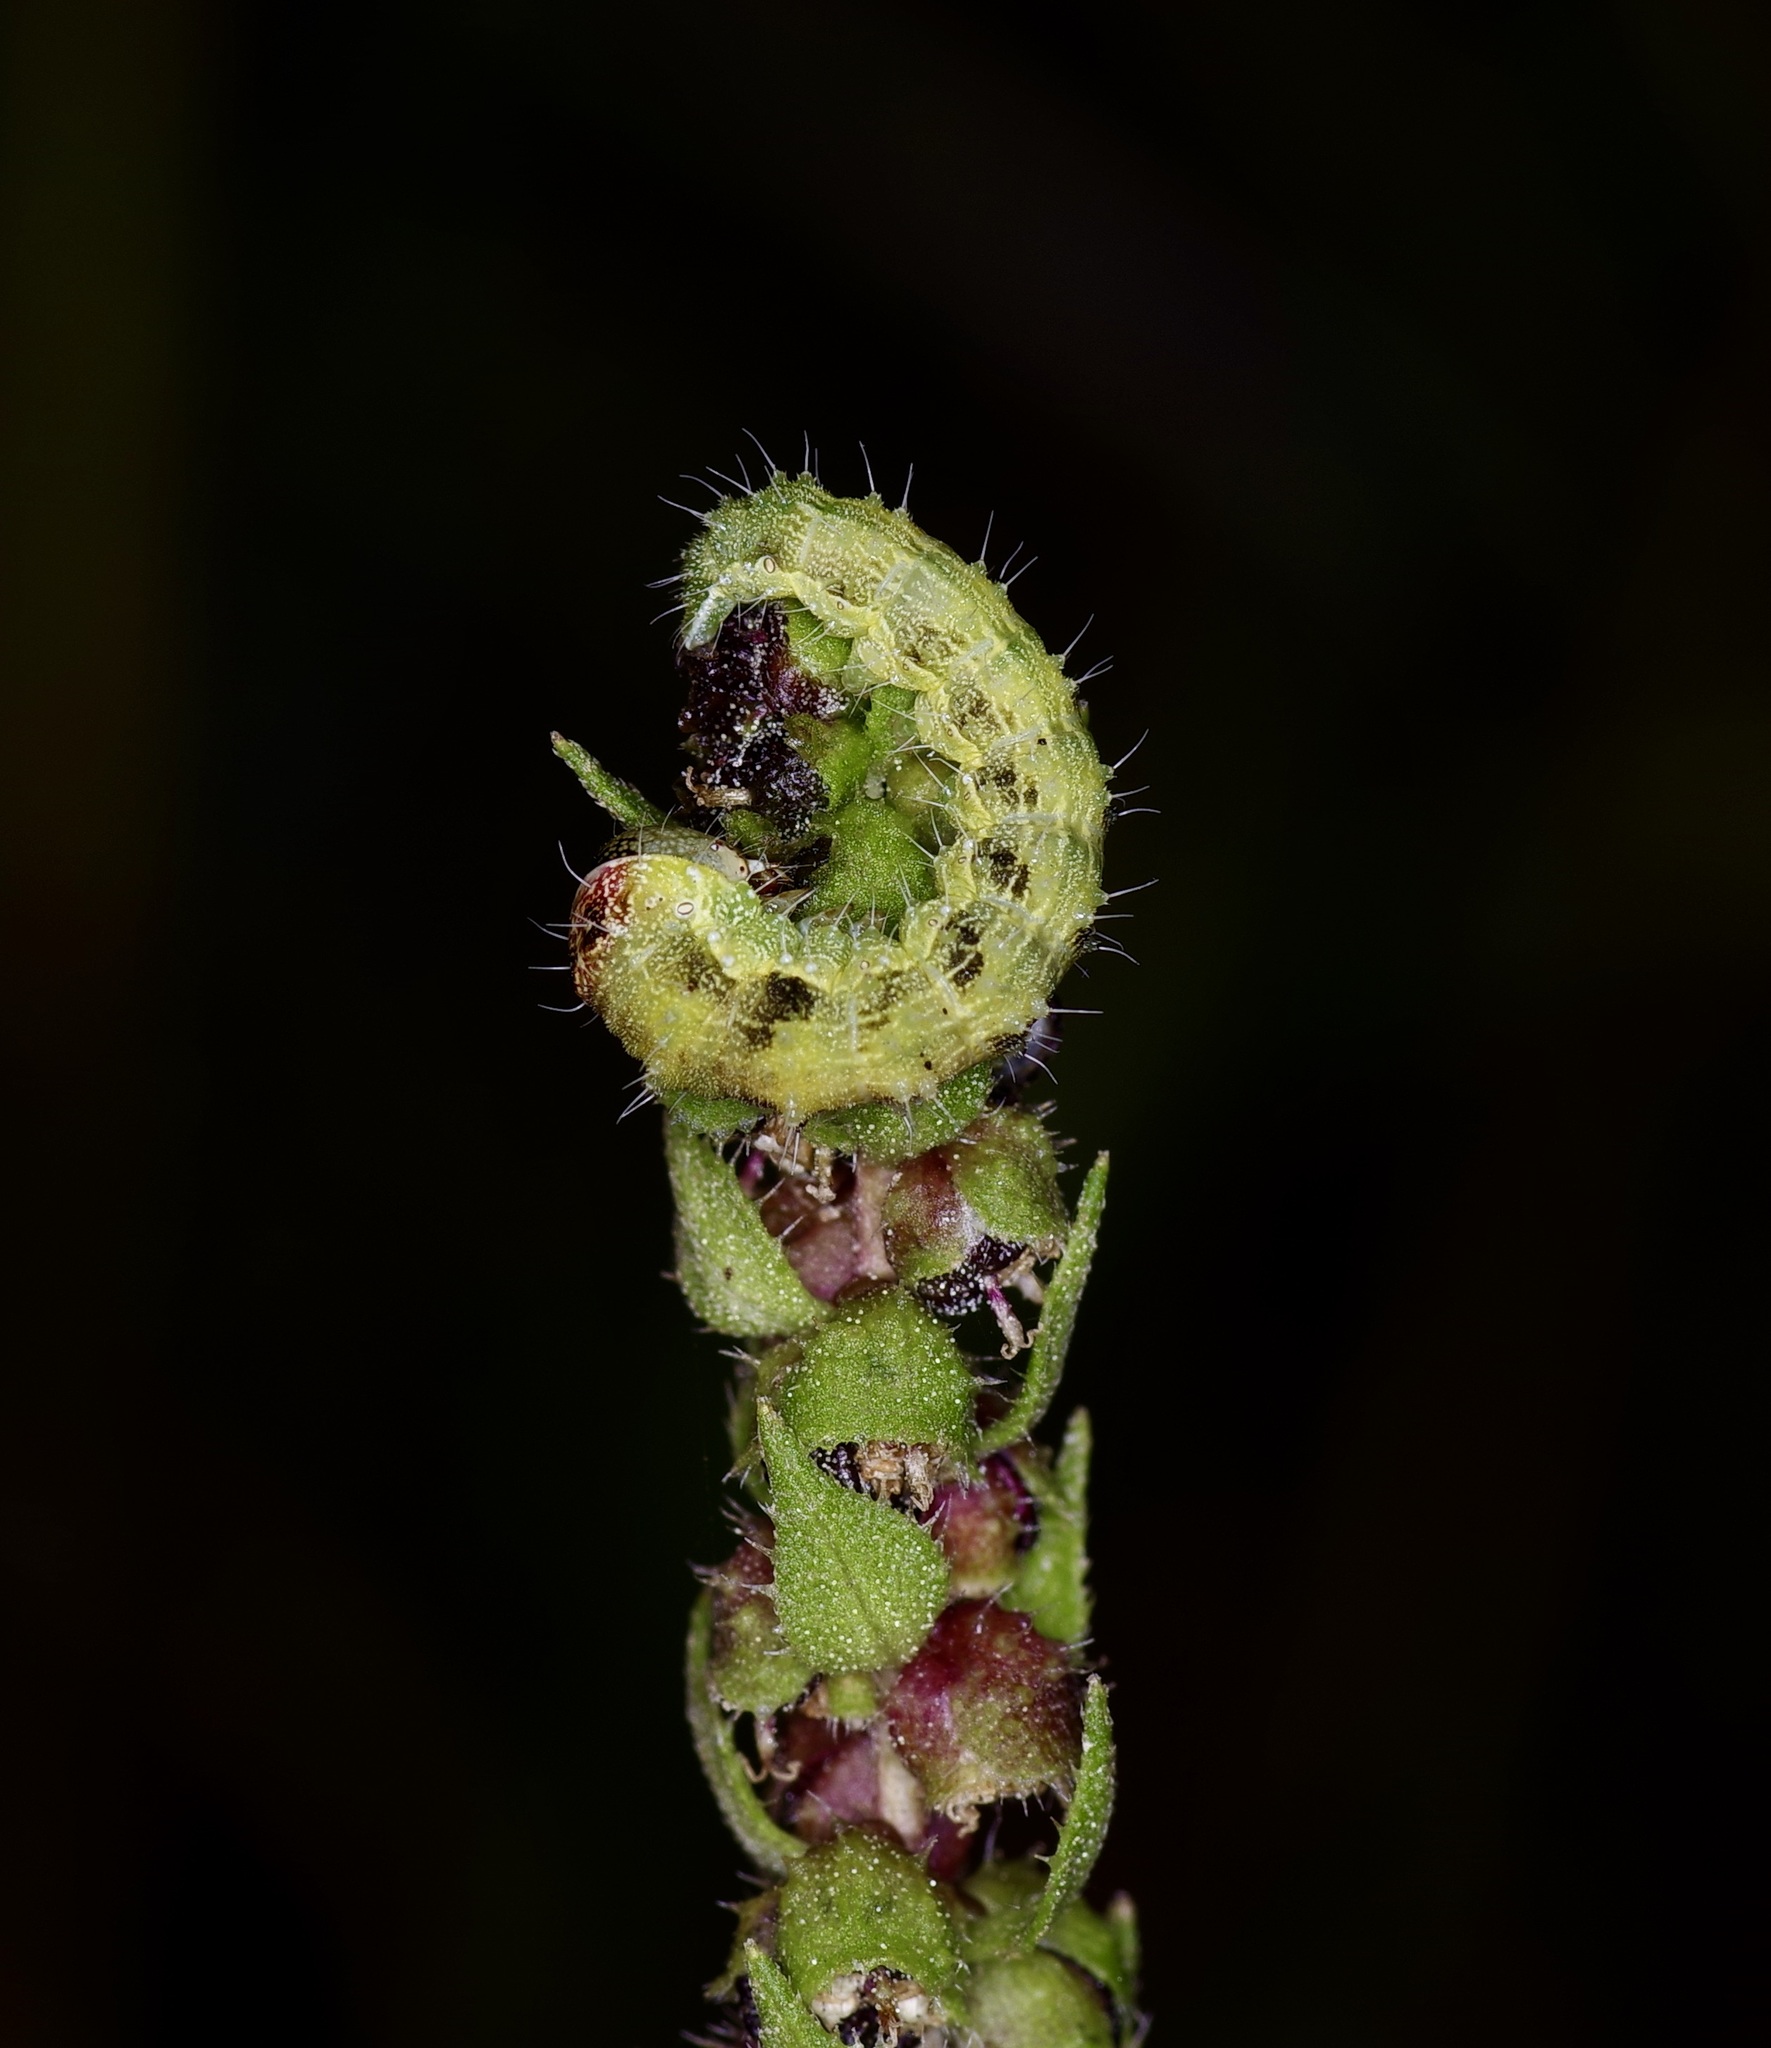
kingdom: Animalia
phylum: Arthropoda
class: Insecta
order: Lepidoptera
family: Noctuidae
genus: Schinia
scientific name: Schinia gracilenta
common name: Slender flower moth
